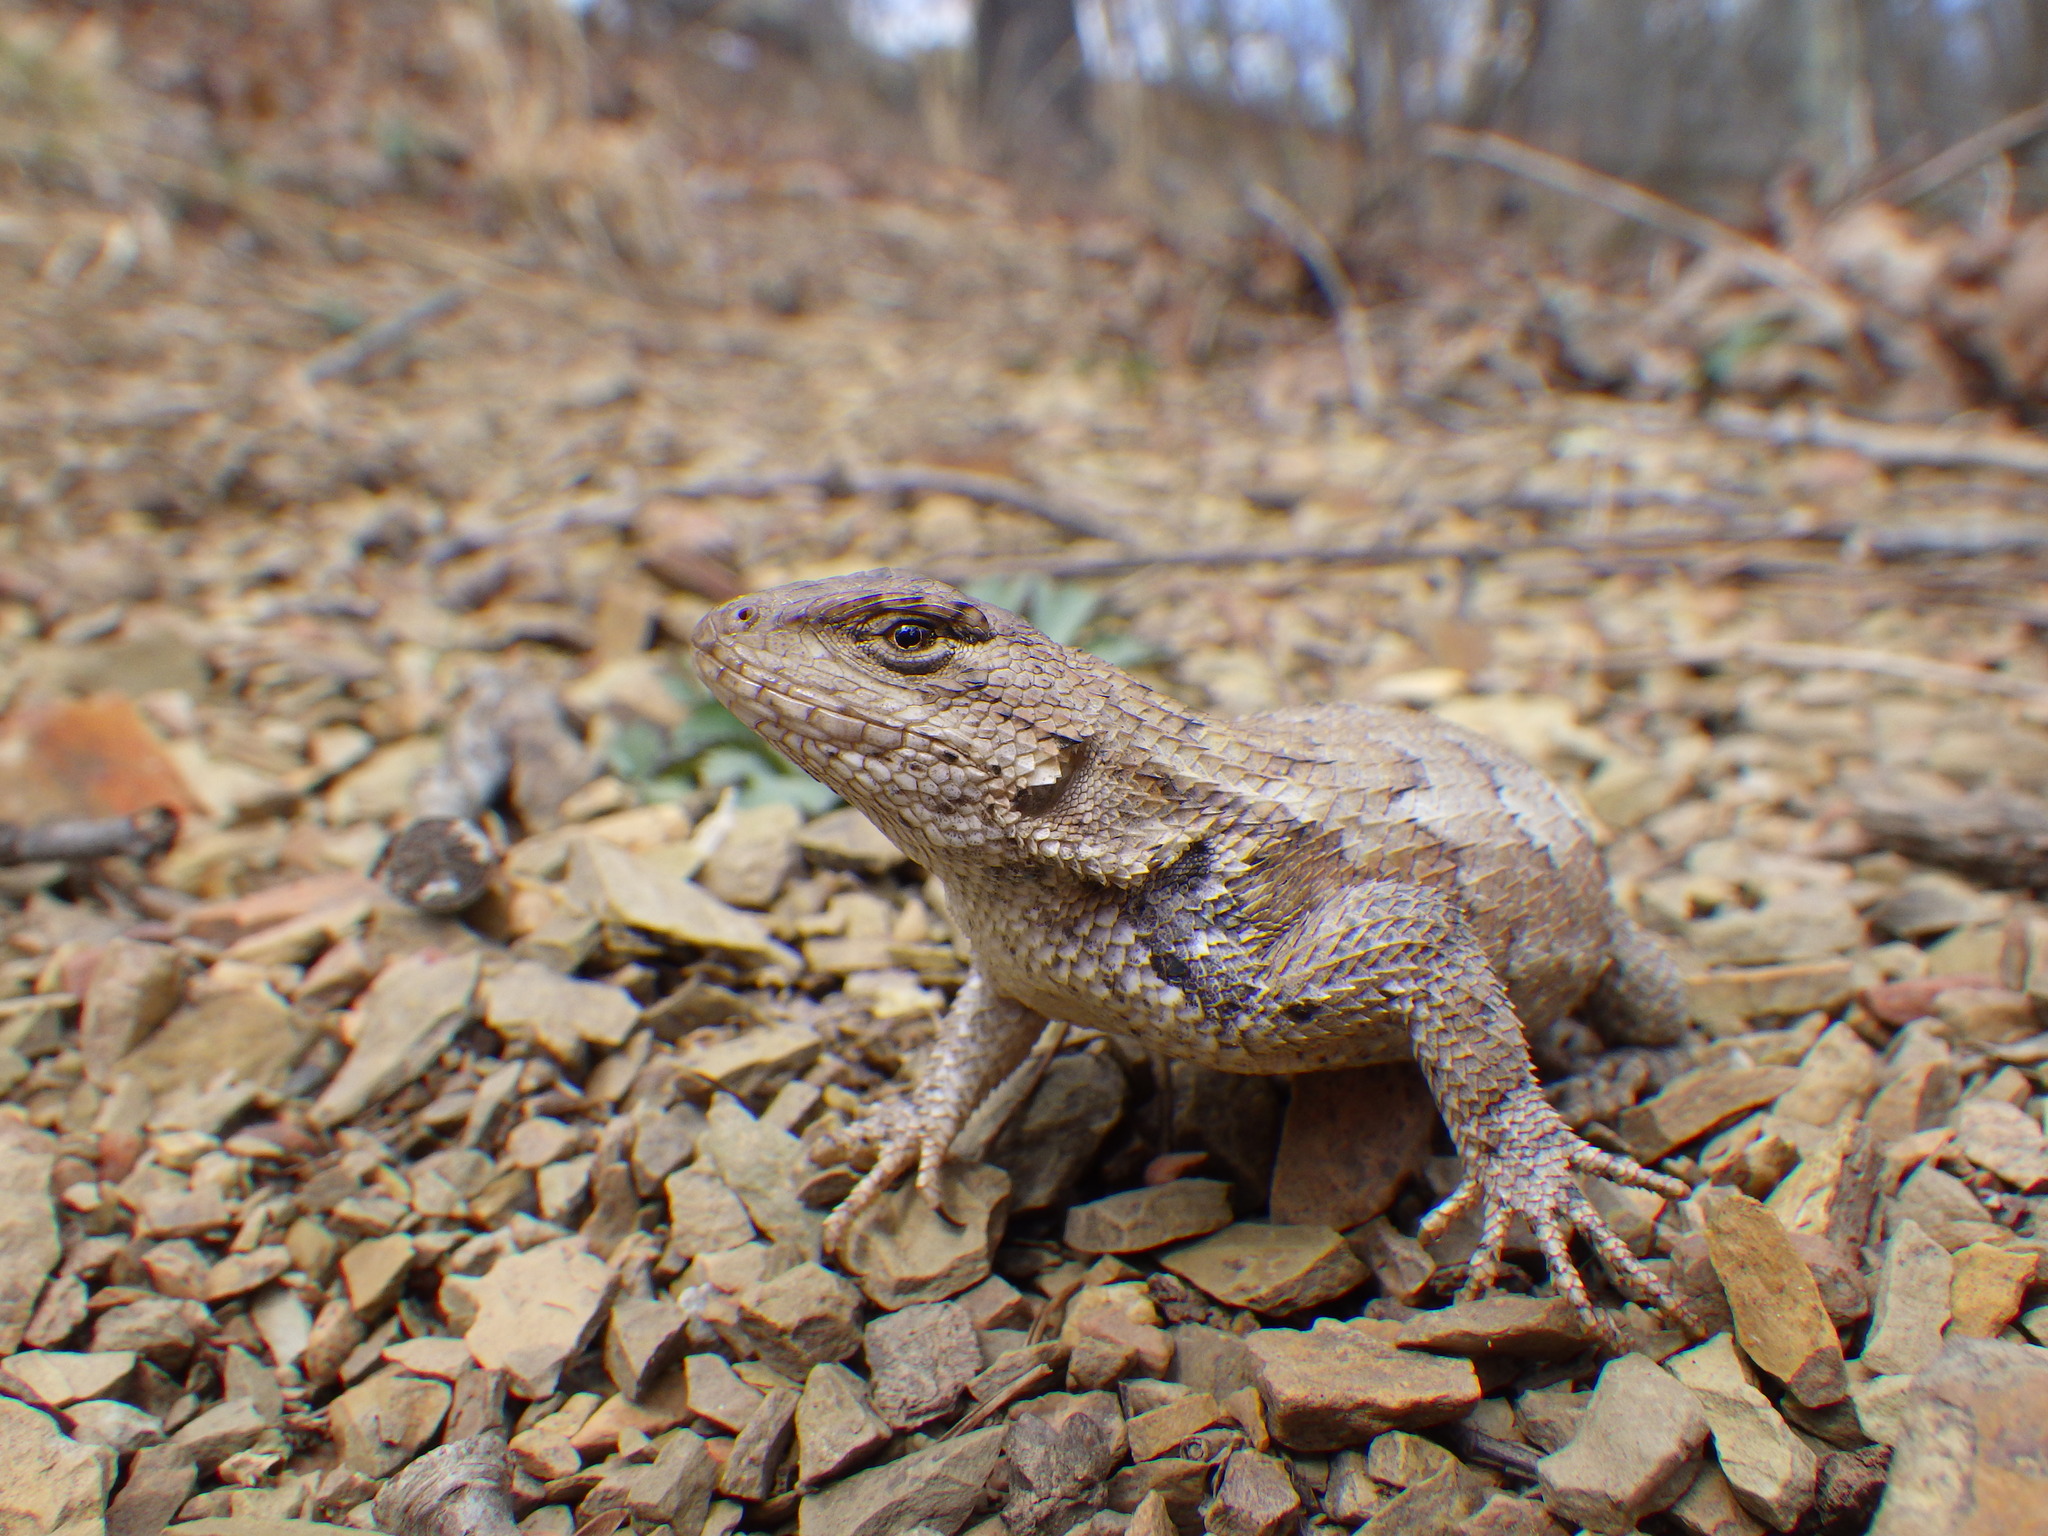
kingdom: Animalia
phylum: Chordata
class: Squamata
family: Phrynosomatidae
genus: Sceloporus
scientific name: Sceloporus undulatus
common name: Eastern fence lizard
